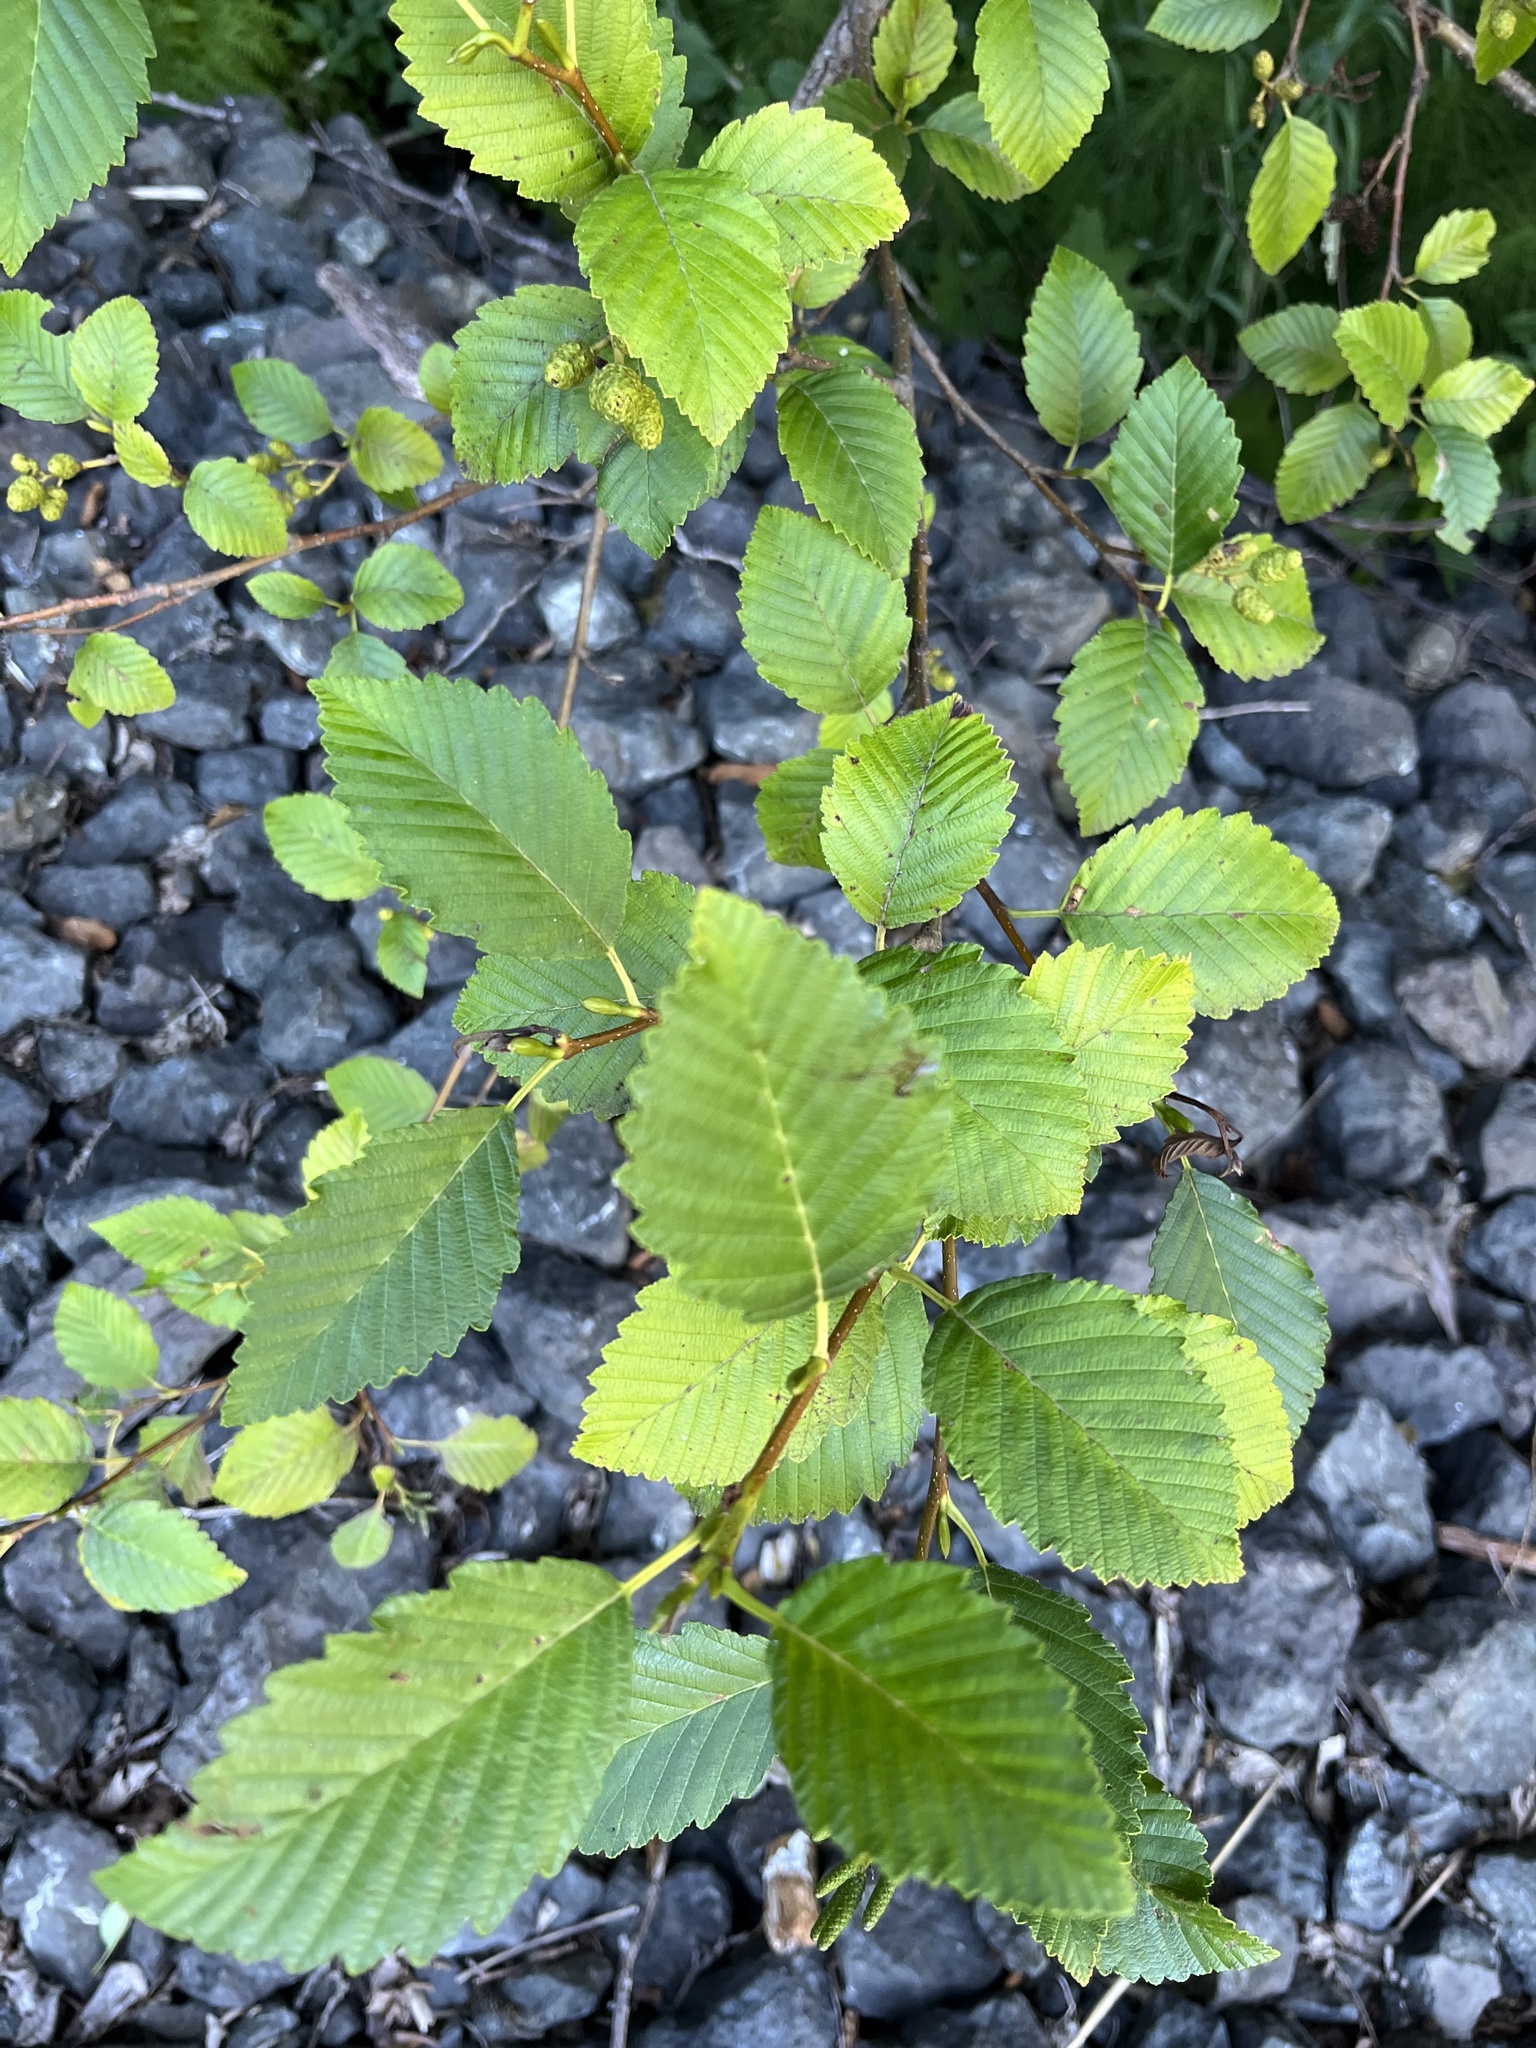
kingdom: Plantae
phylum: Tracheophyta
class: Magnoliopsida
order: Fagales
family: Betulaceae
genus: Alnus
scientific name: Alnus rubra
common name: Red alder
